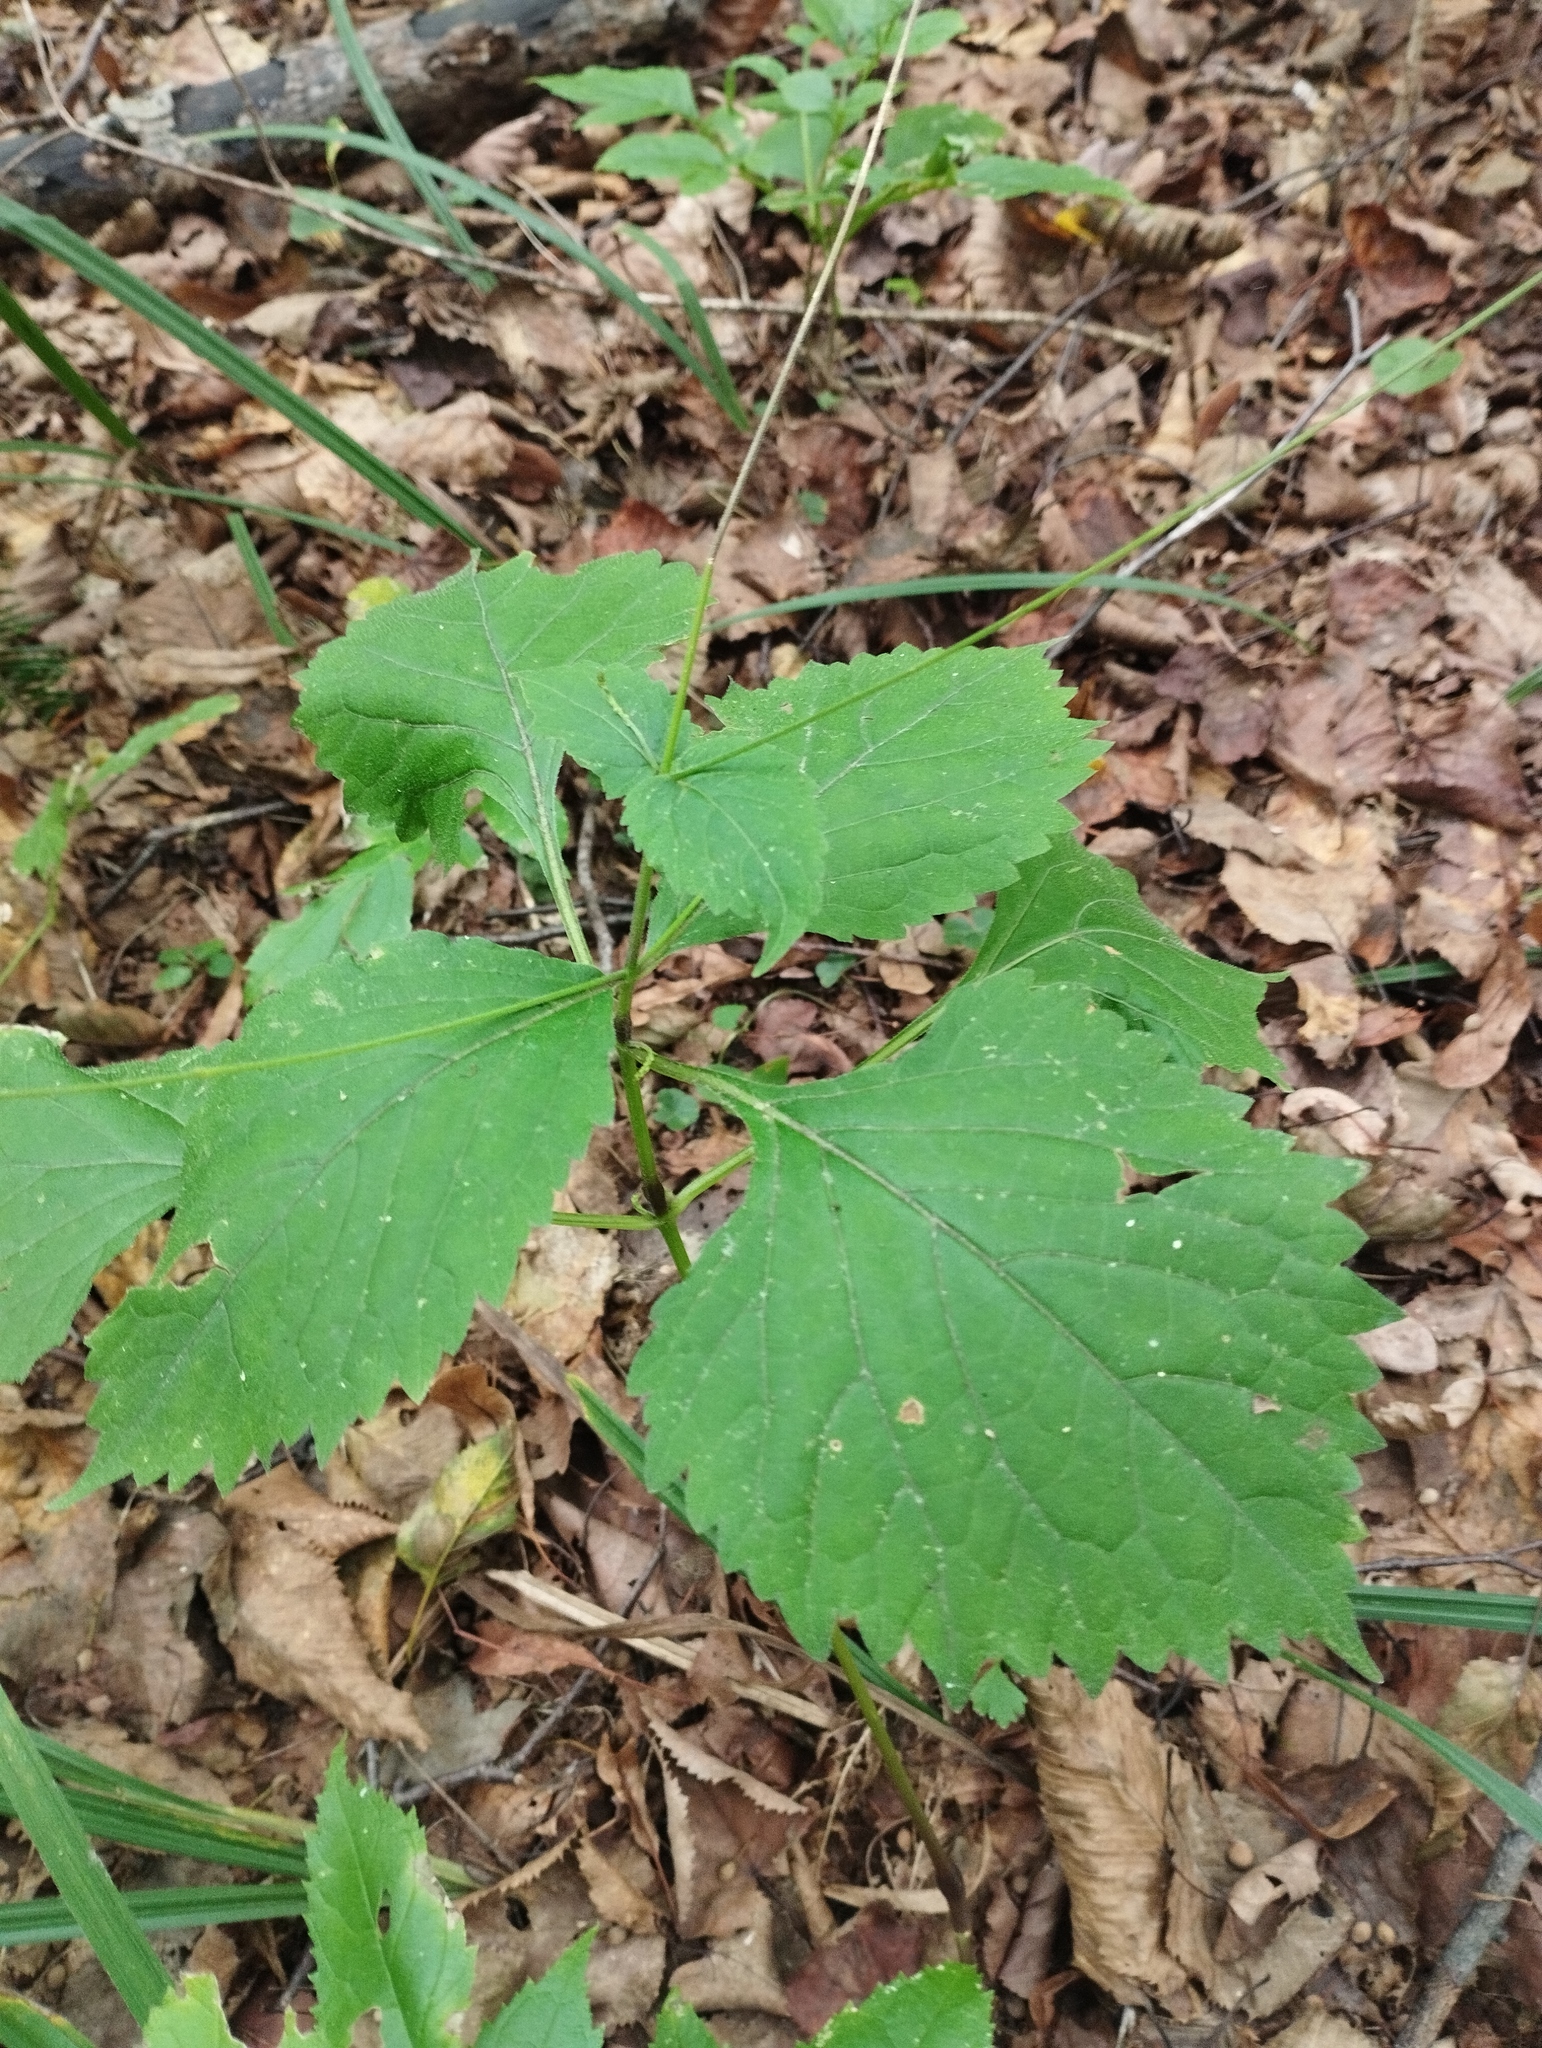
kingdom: Plantae
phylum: Tracheophyta
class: Magnoliopsida
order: Lamiales
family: Phrymaceae
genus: Phryma
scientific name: Phryma nana
